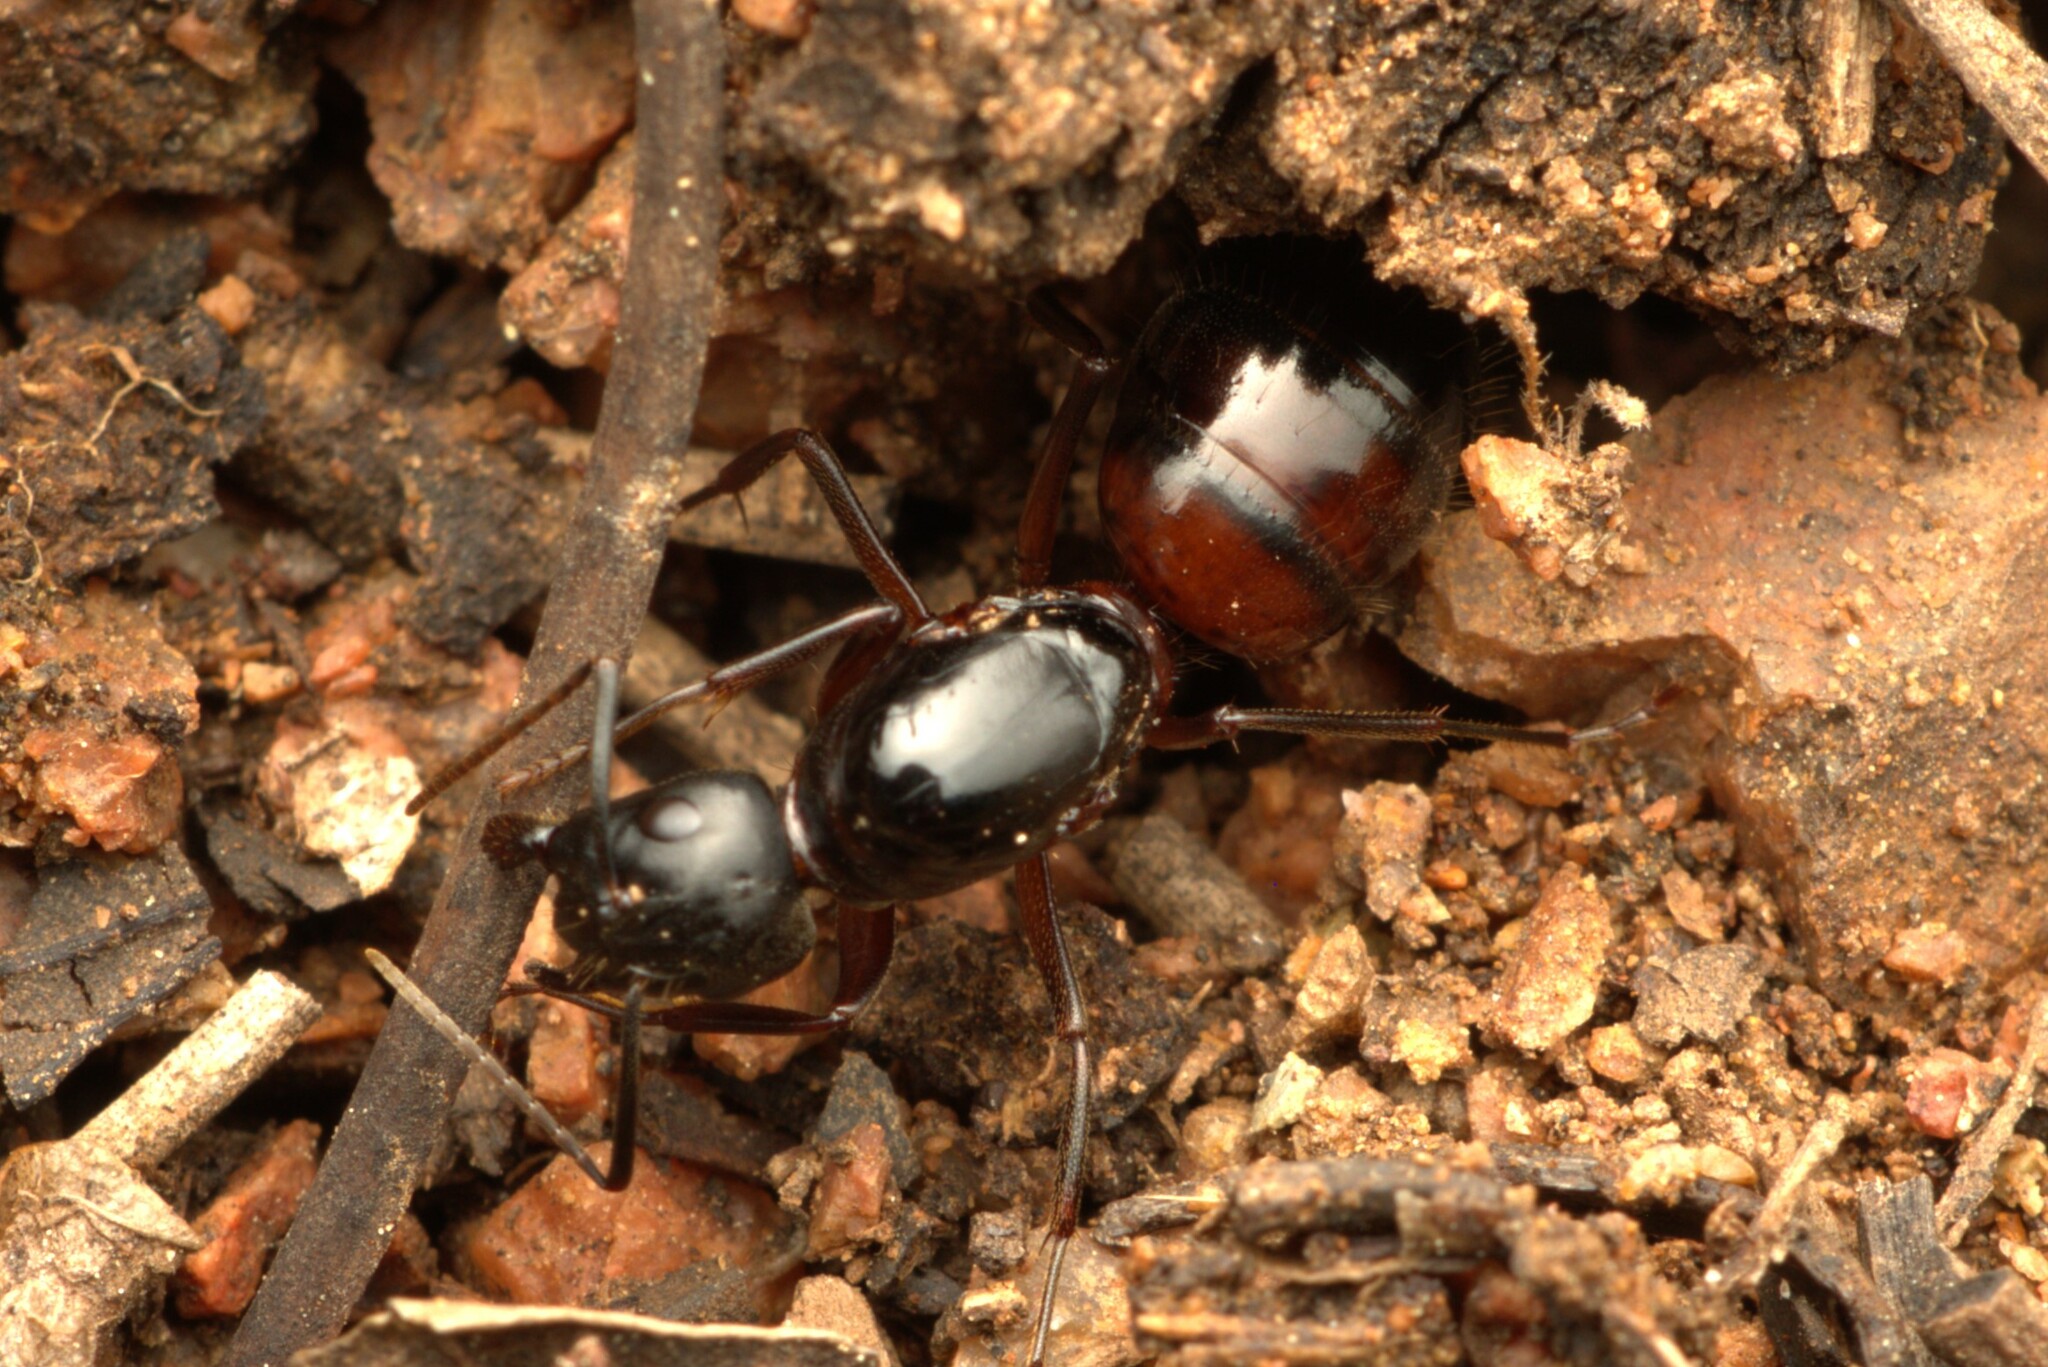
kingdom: Animalia
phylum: Arthropoda
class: Insecta
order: Hymenoptera
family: Formicidae
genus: Camponotus
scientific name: Camponotus vicinus
